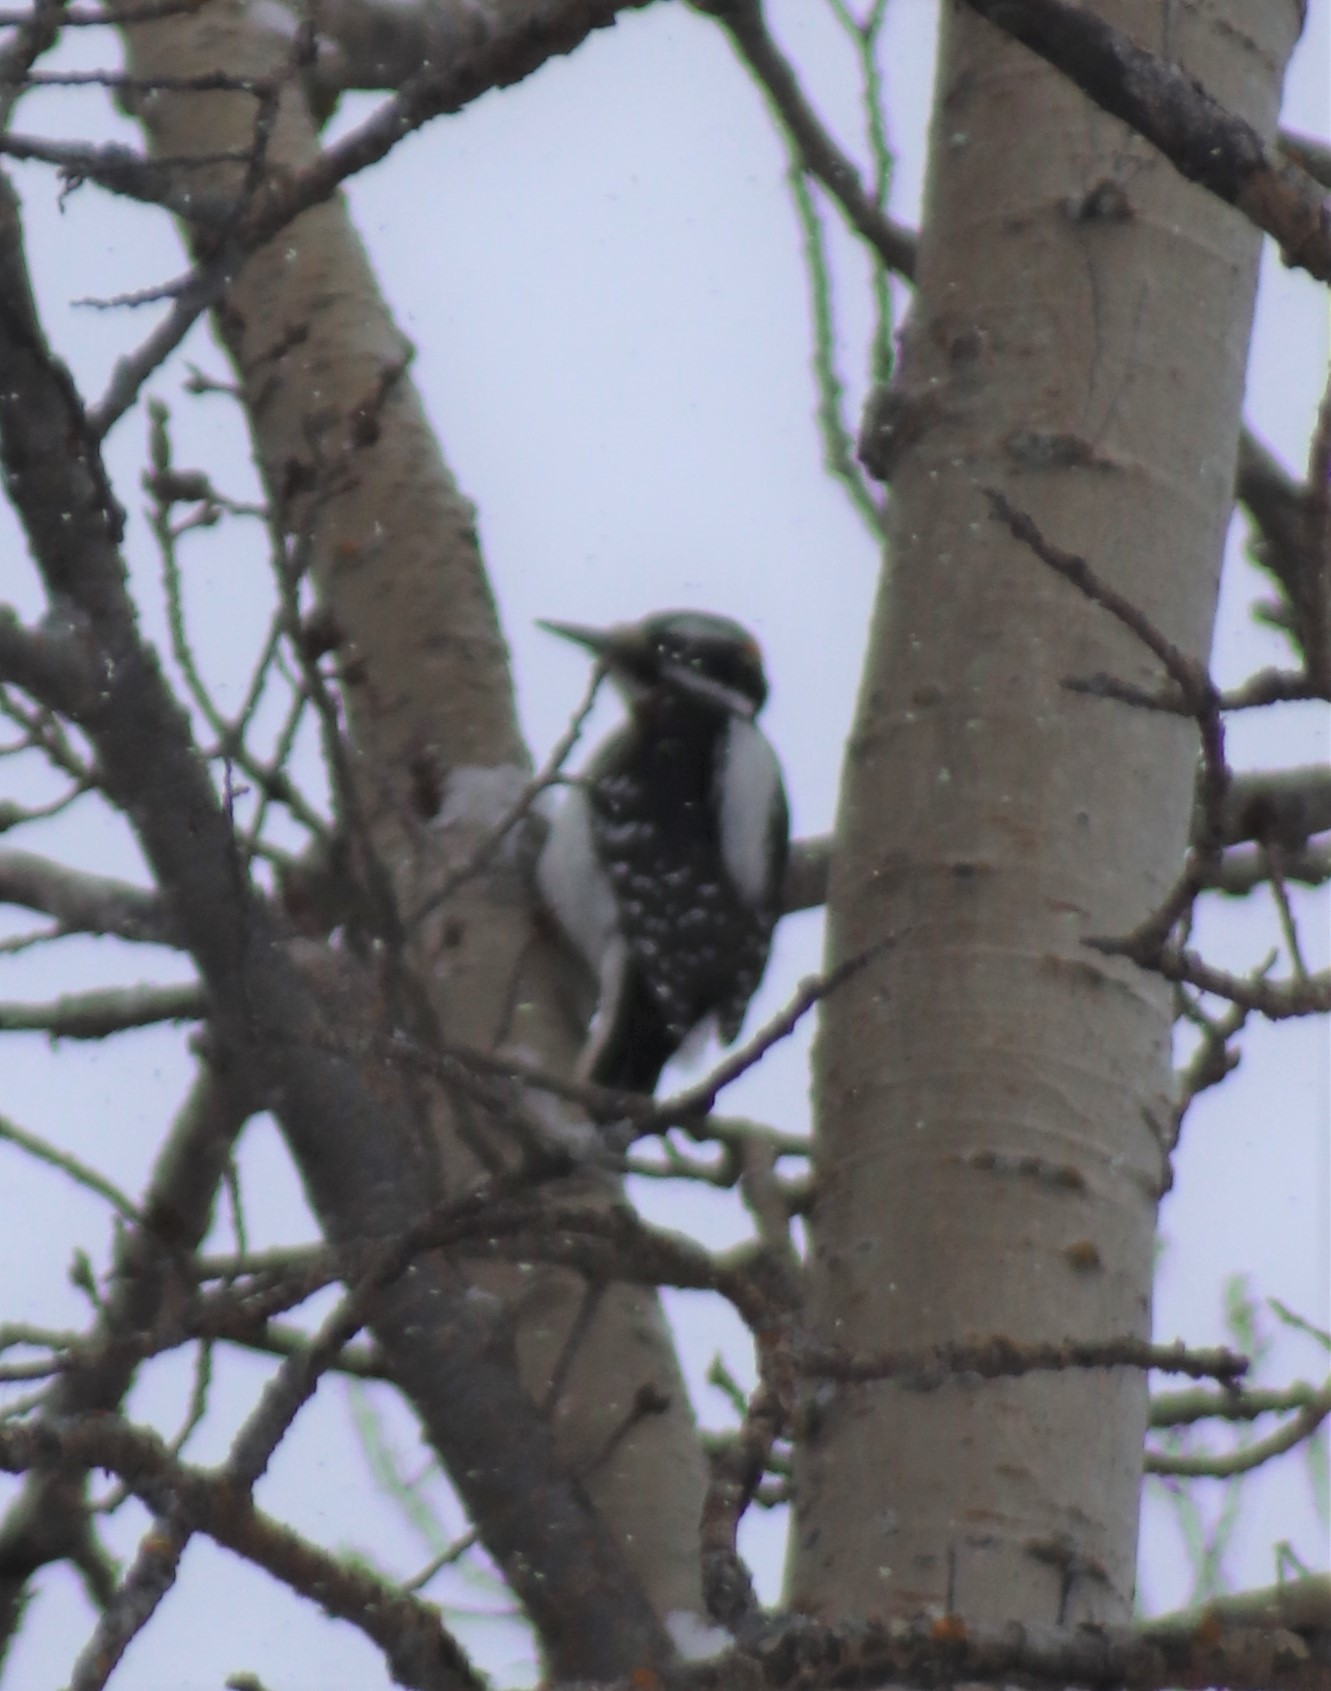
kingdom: Animalia
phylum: Chordata
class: Aves
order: Piciformes
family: Picidae
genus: Leuconotopicus
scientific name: Leuconotopicus villosus
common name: Hairy woodpecker
